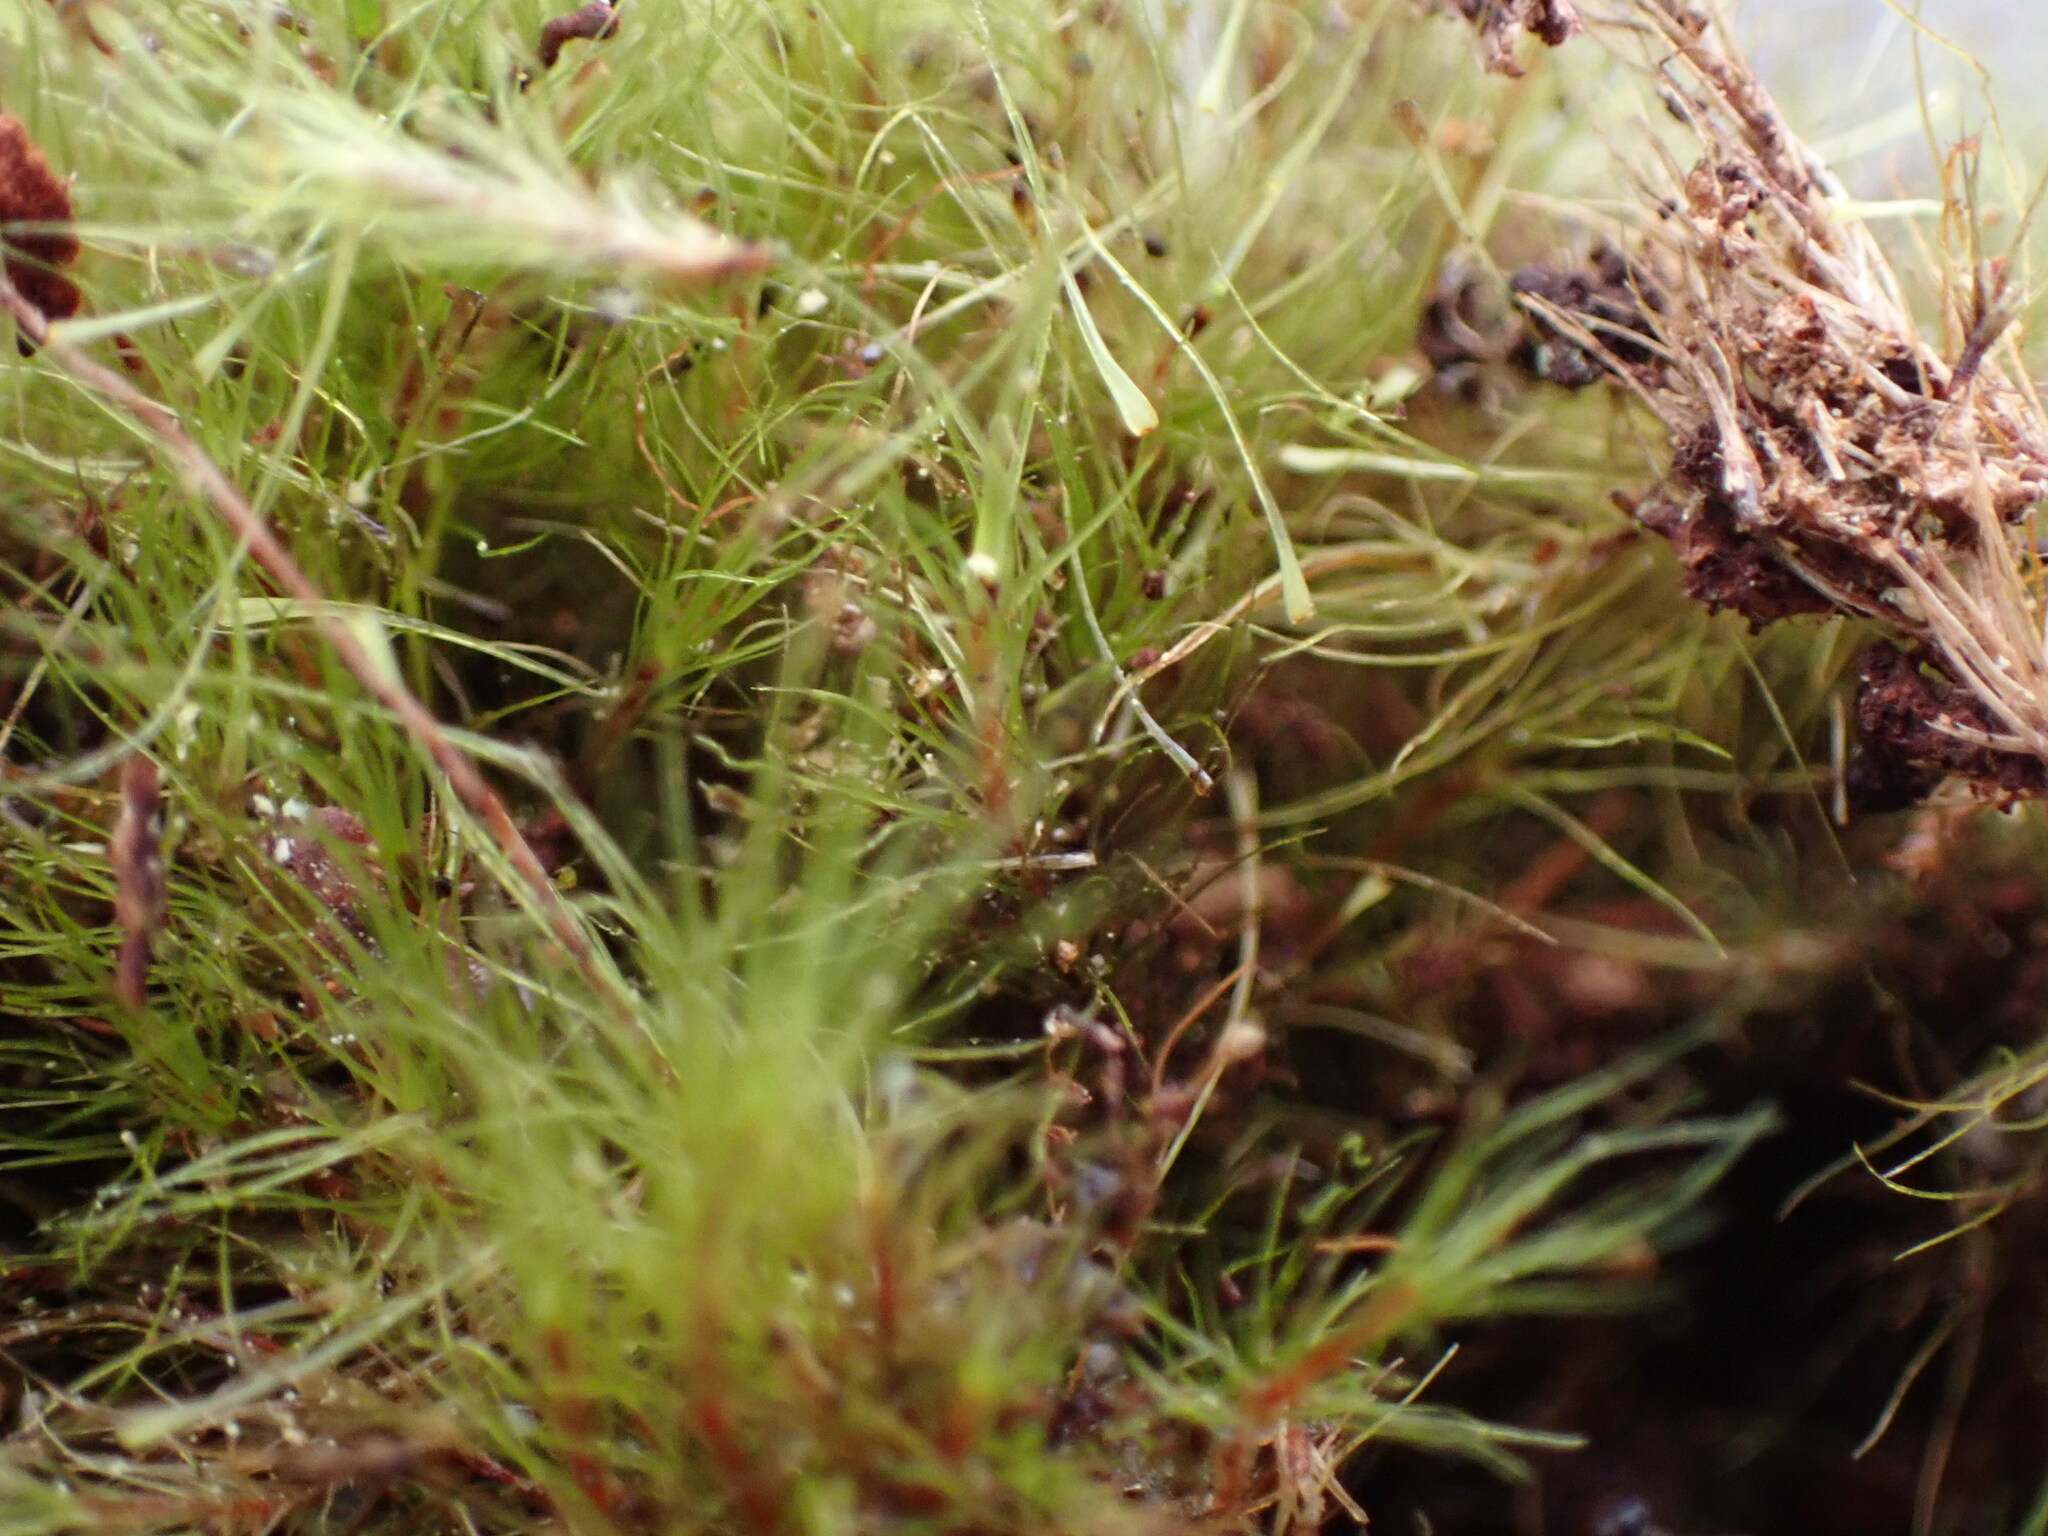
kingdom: Plantae
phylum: Bryophyta
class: Bryopsida
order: Dicranales
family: Leucobryaceae
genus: Dicranodontium
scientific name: Dicranodontium denudatum
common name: Beaked bow moss
